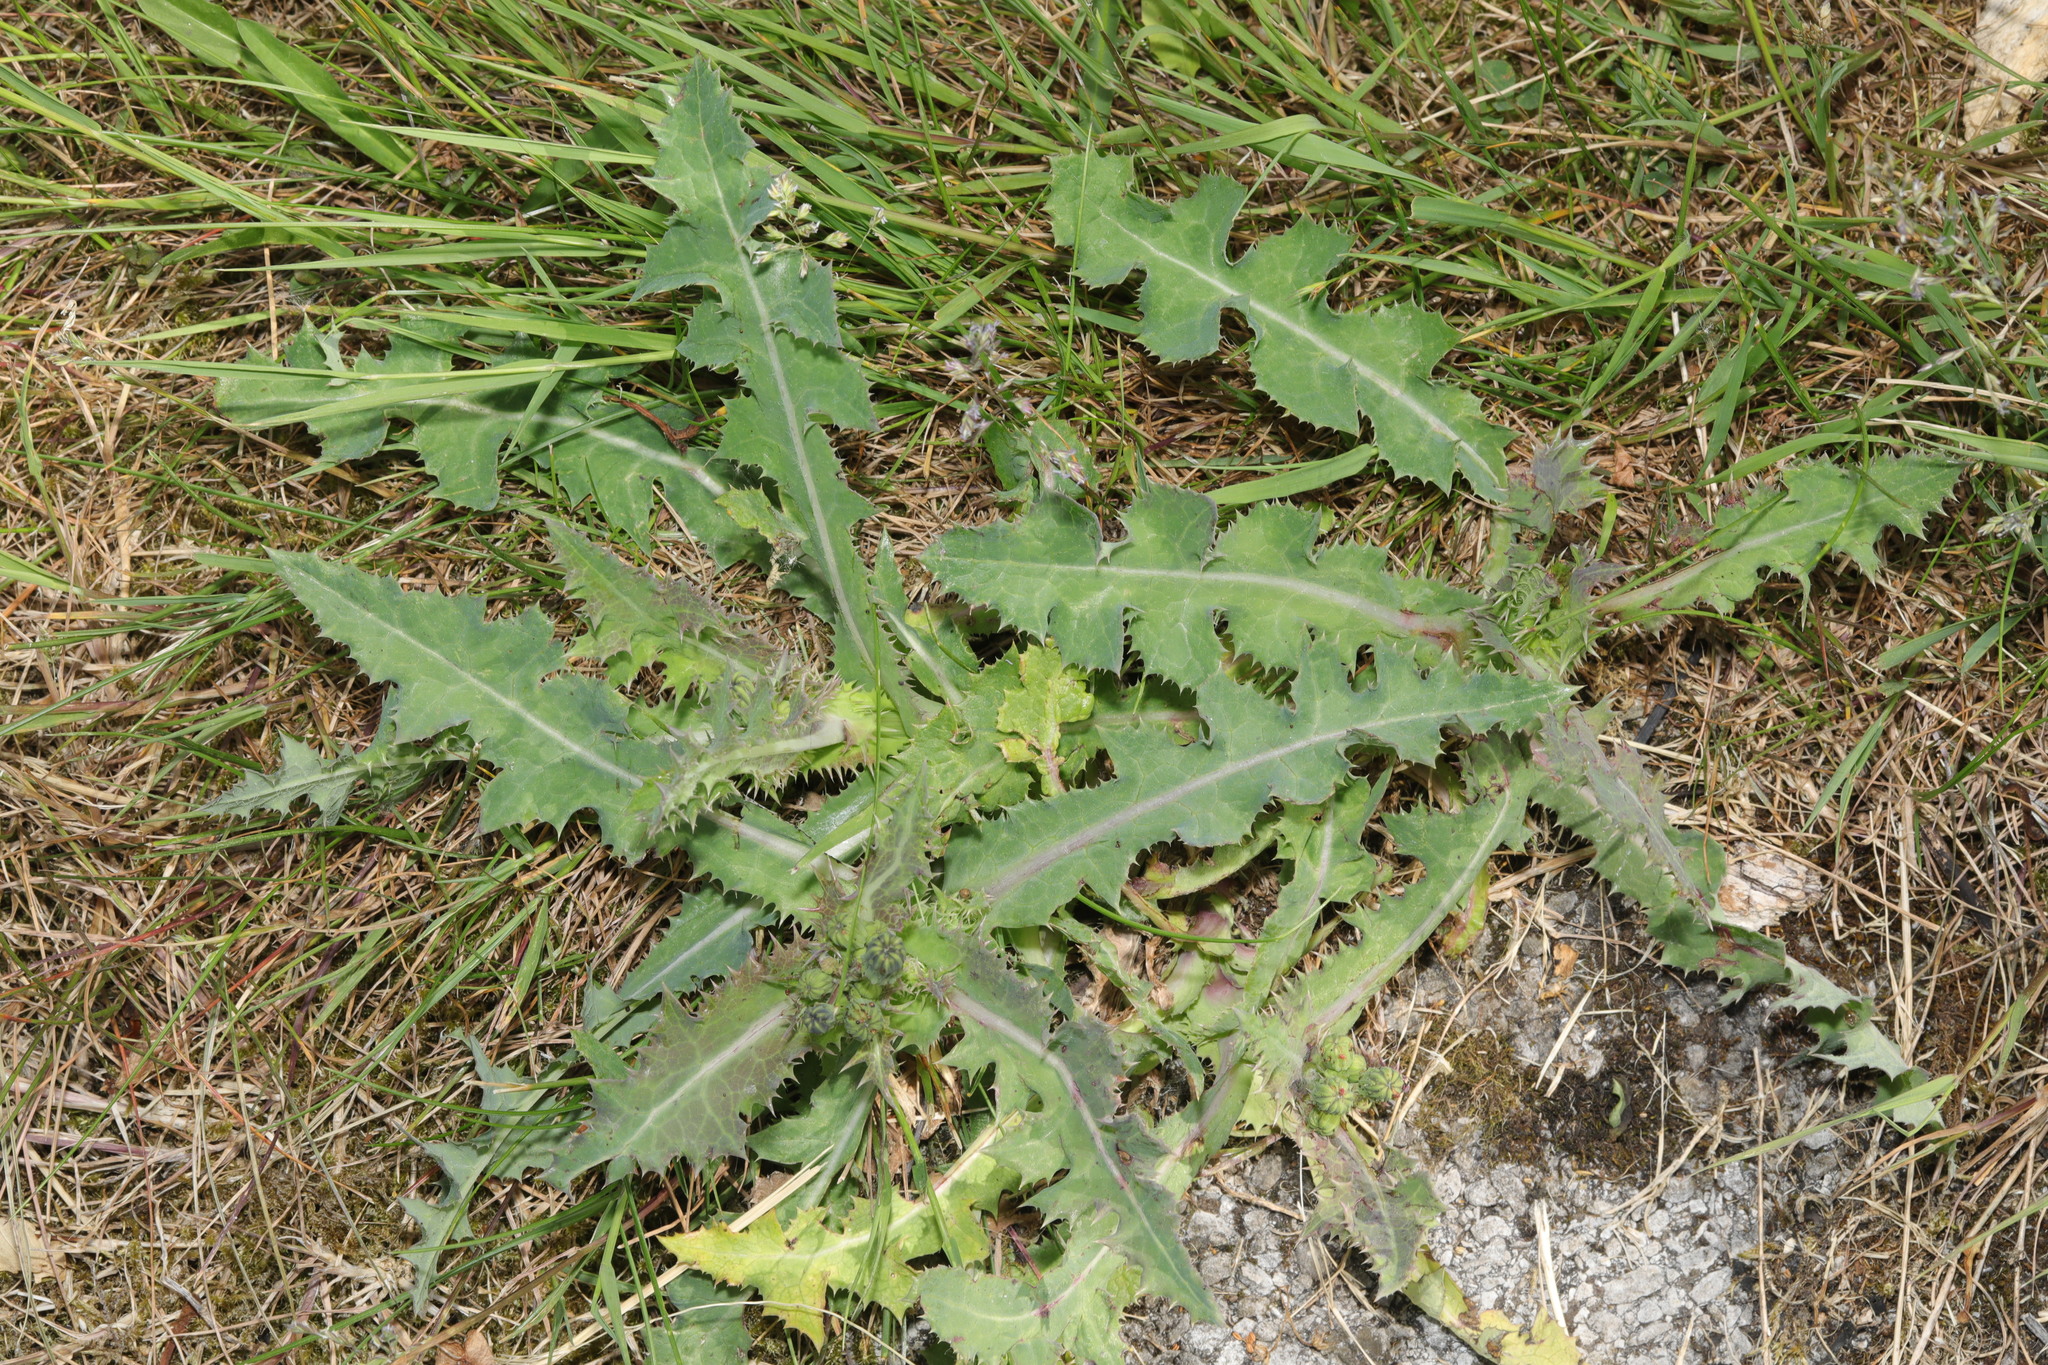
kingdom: Plantae
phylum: Tracheophyta
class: Magnoliopsida
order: Asterales
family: Asteraceae
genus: Sonchus
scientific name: Sonchus asper
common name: Prickly sow-thistle
